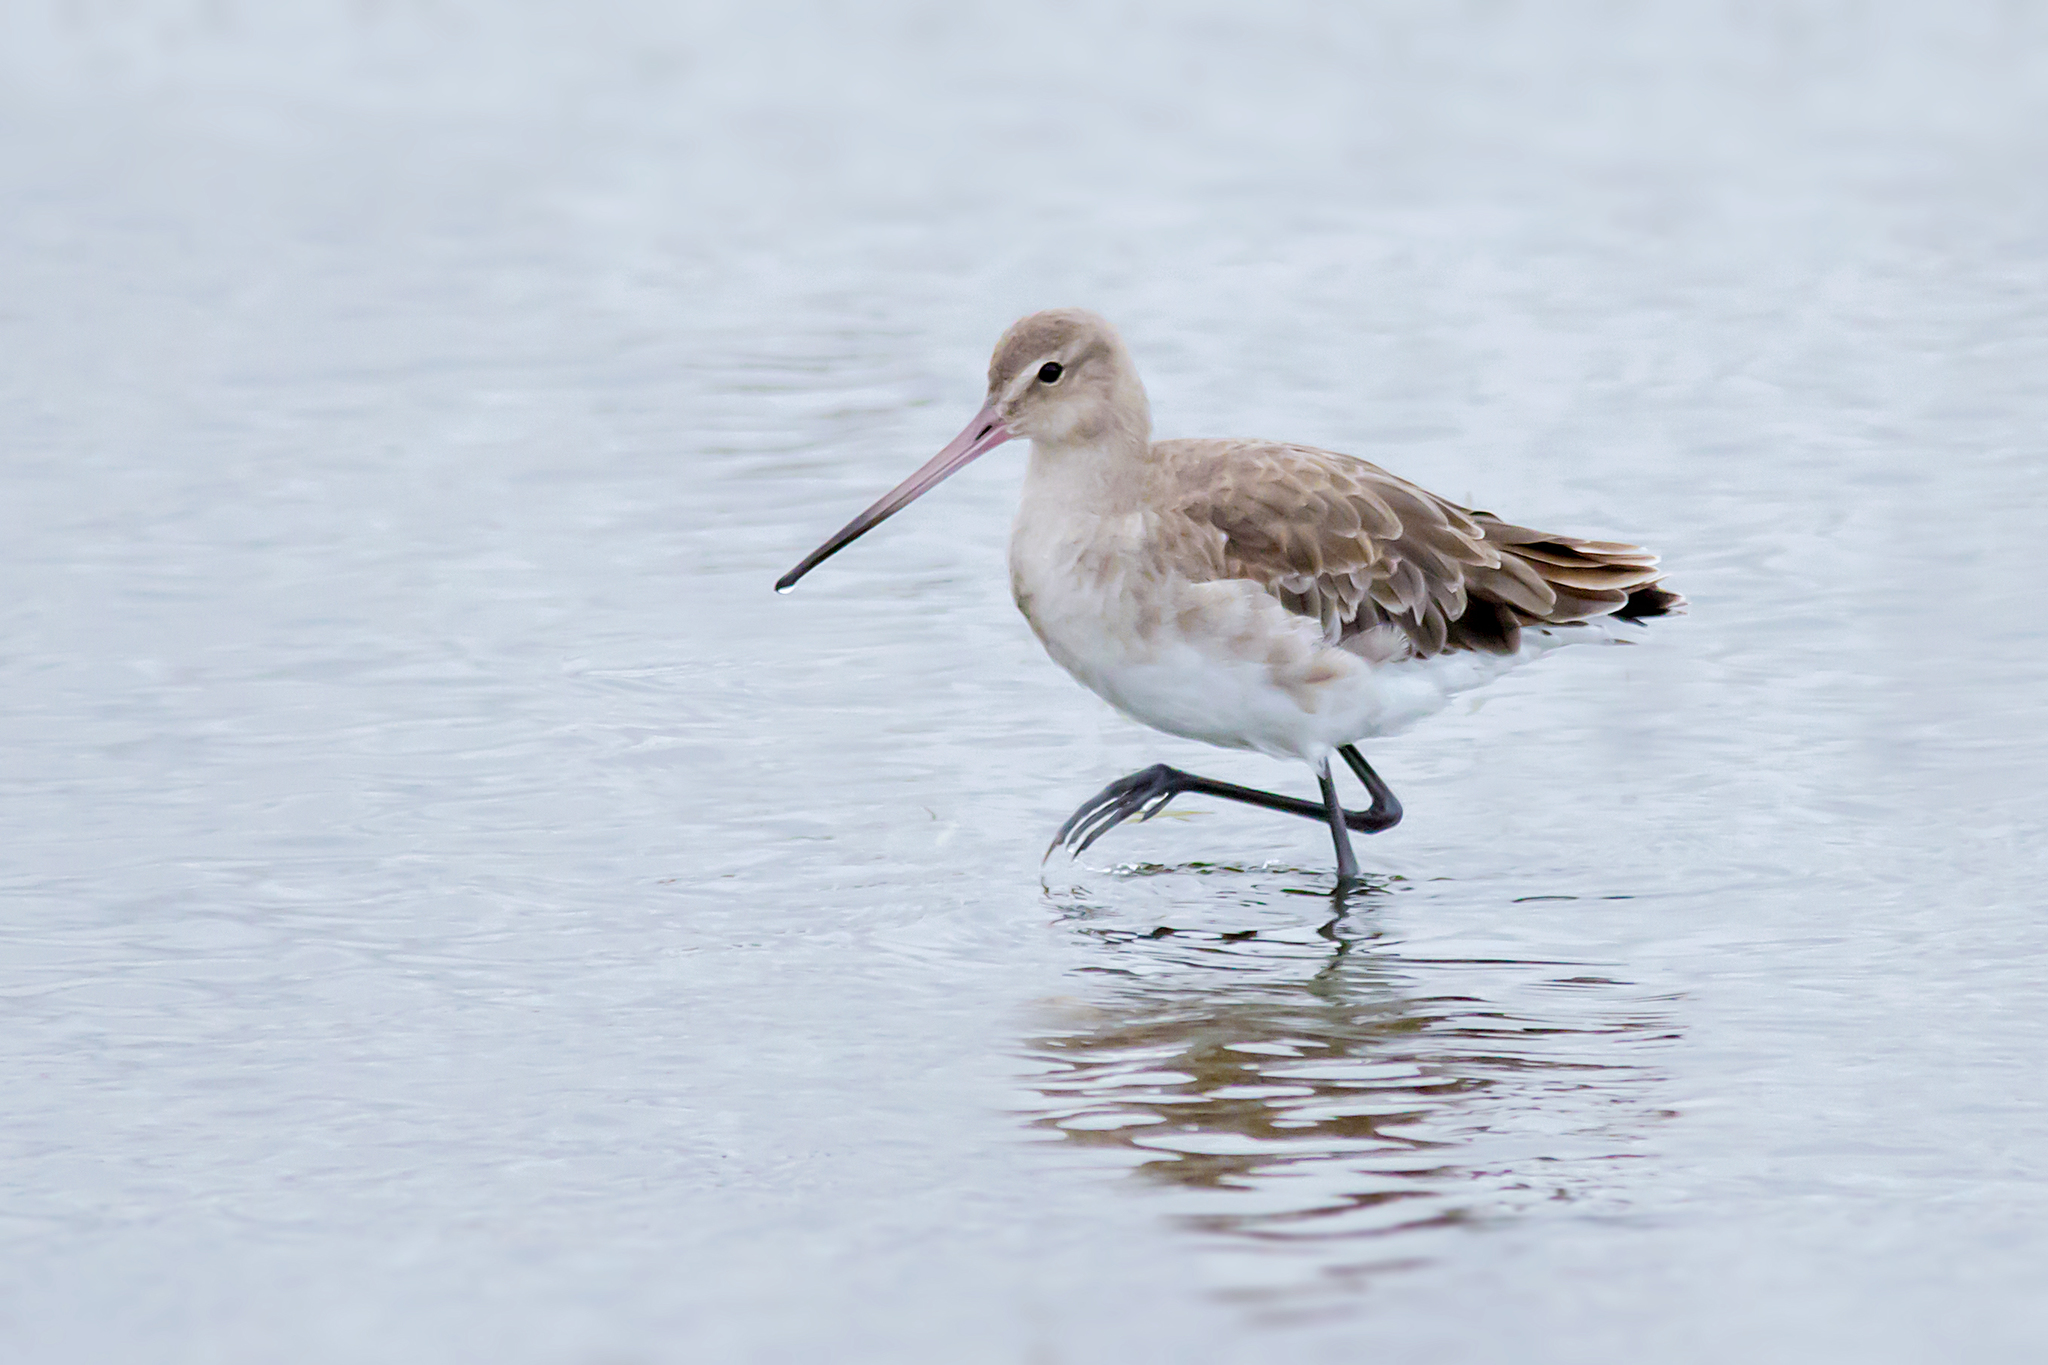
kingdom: Animalia
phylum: Chordata
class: Aves
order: Charadriiformes
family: Scolopacidae
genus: Limosa
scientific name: Limosa limosa
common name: Black-tailed godwit
